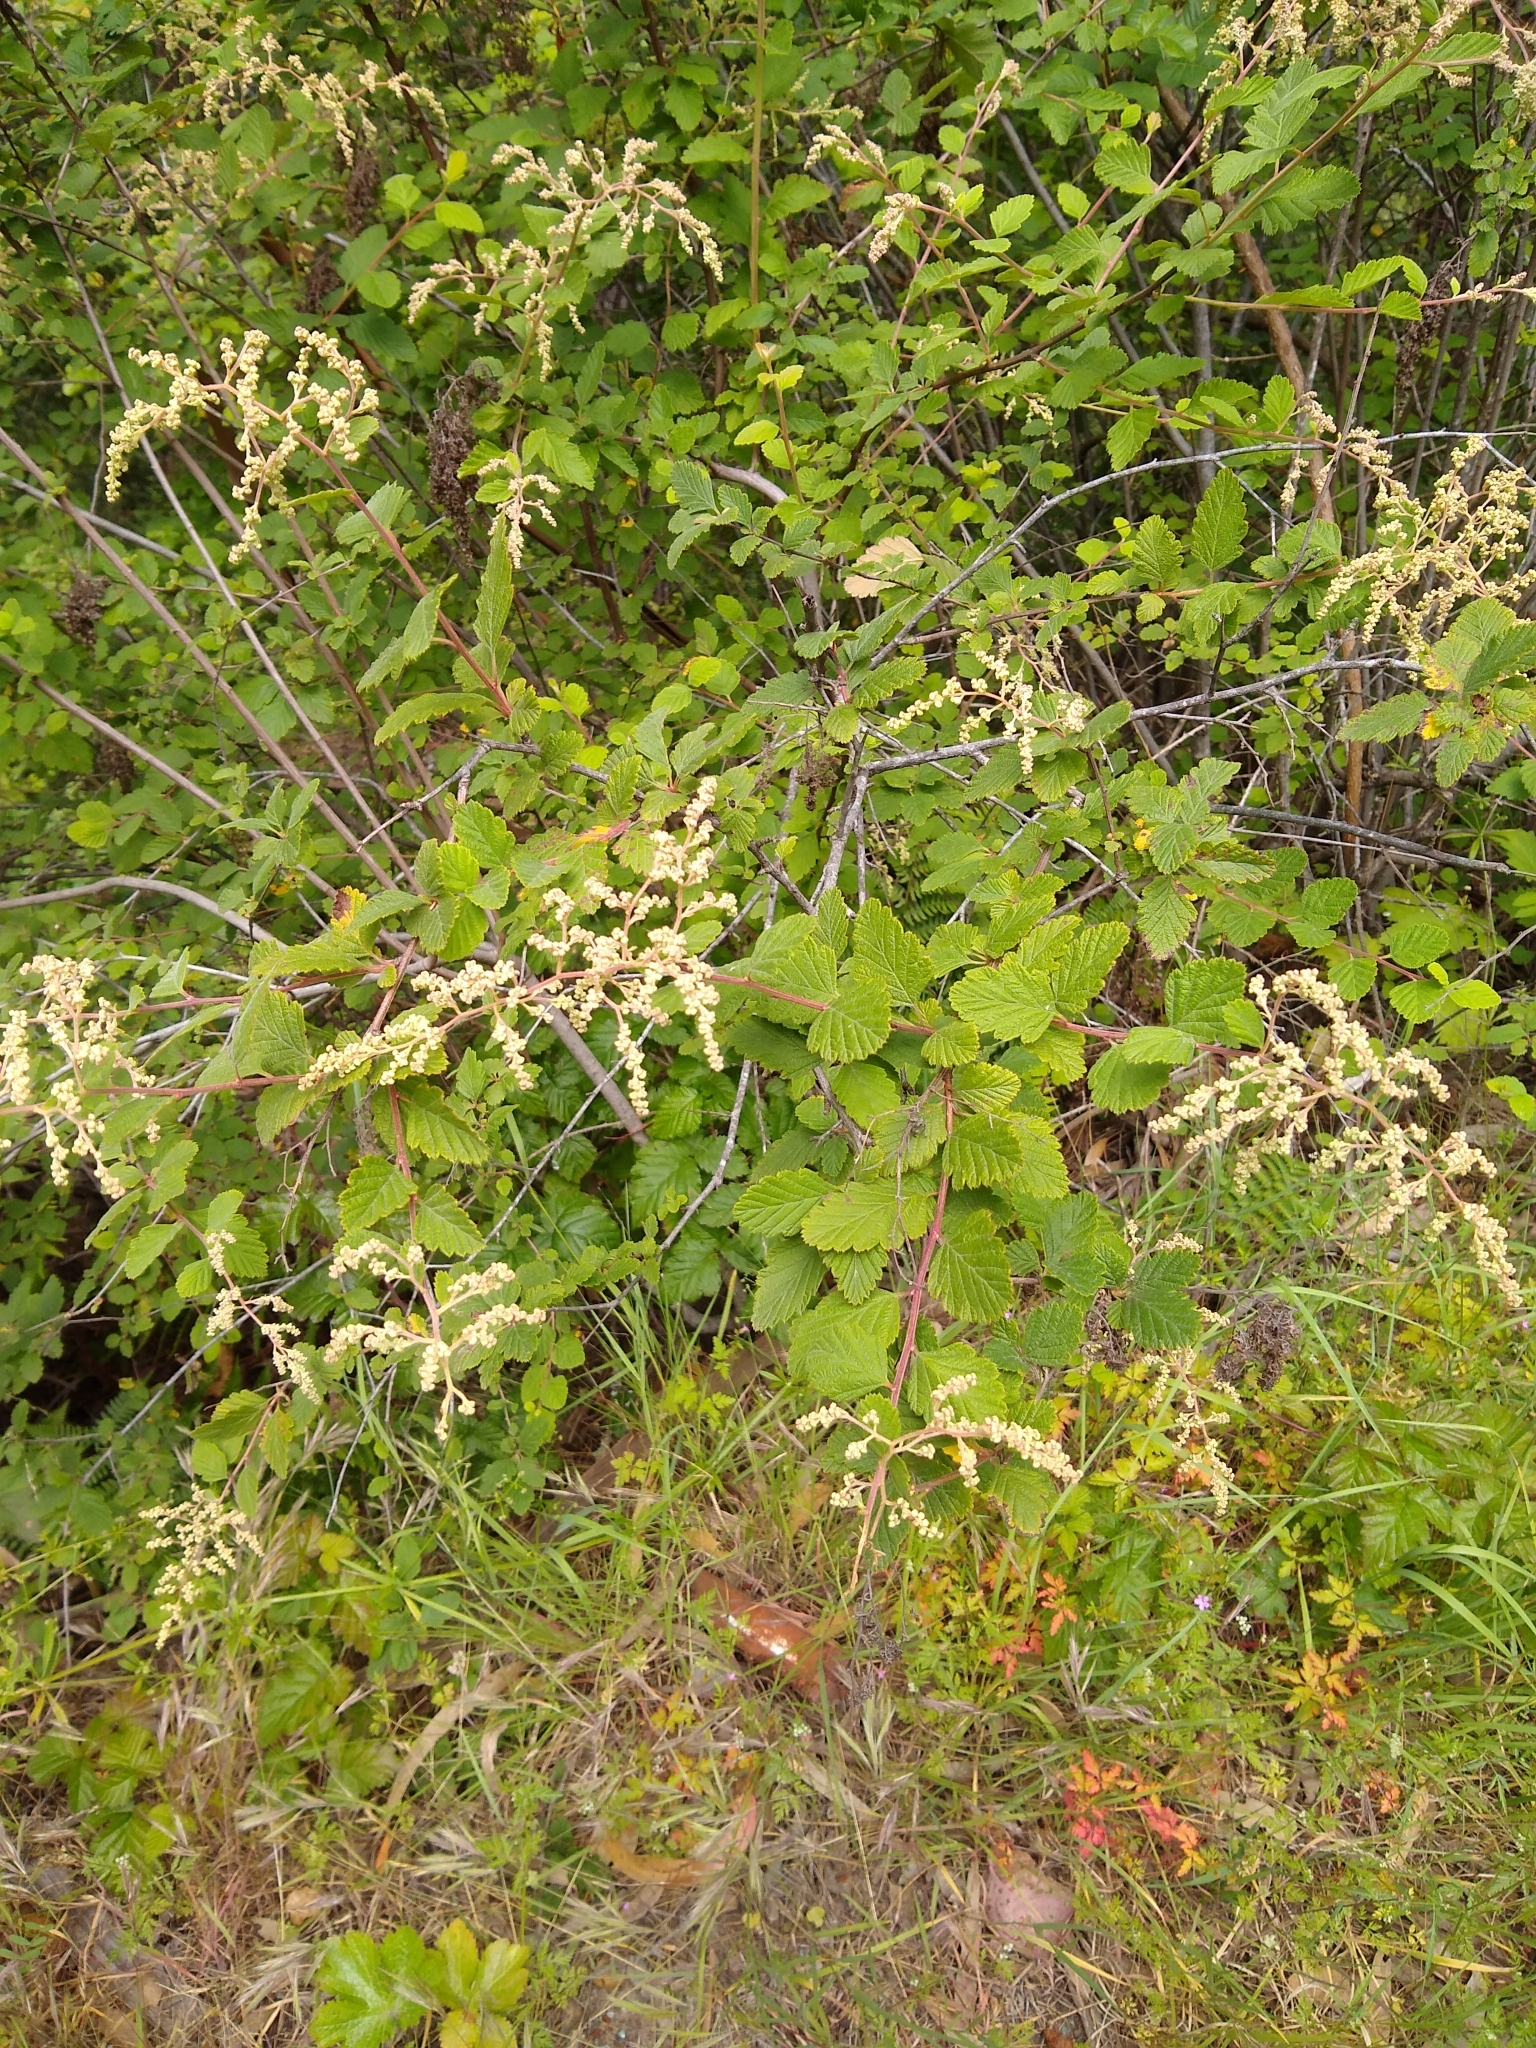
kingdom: Plantae
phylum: Tracheophyta
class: Magnoliopsida
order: Rosales
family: Rosaceae
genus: Holodiscus
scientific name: Holodiscus discolor
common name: Oceanspray
